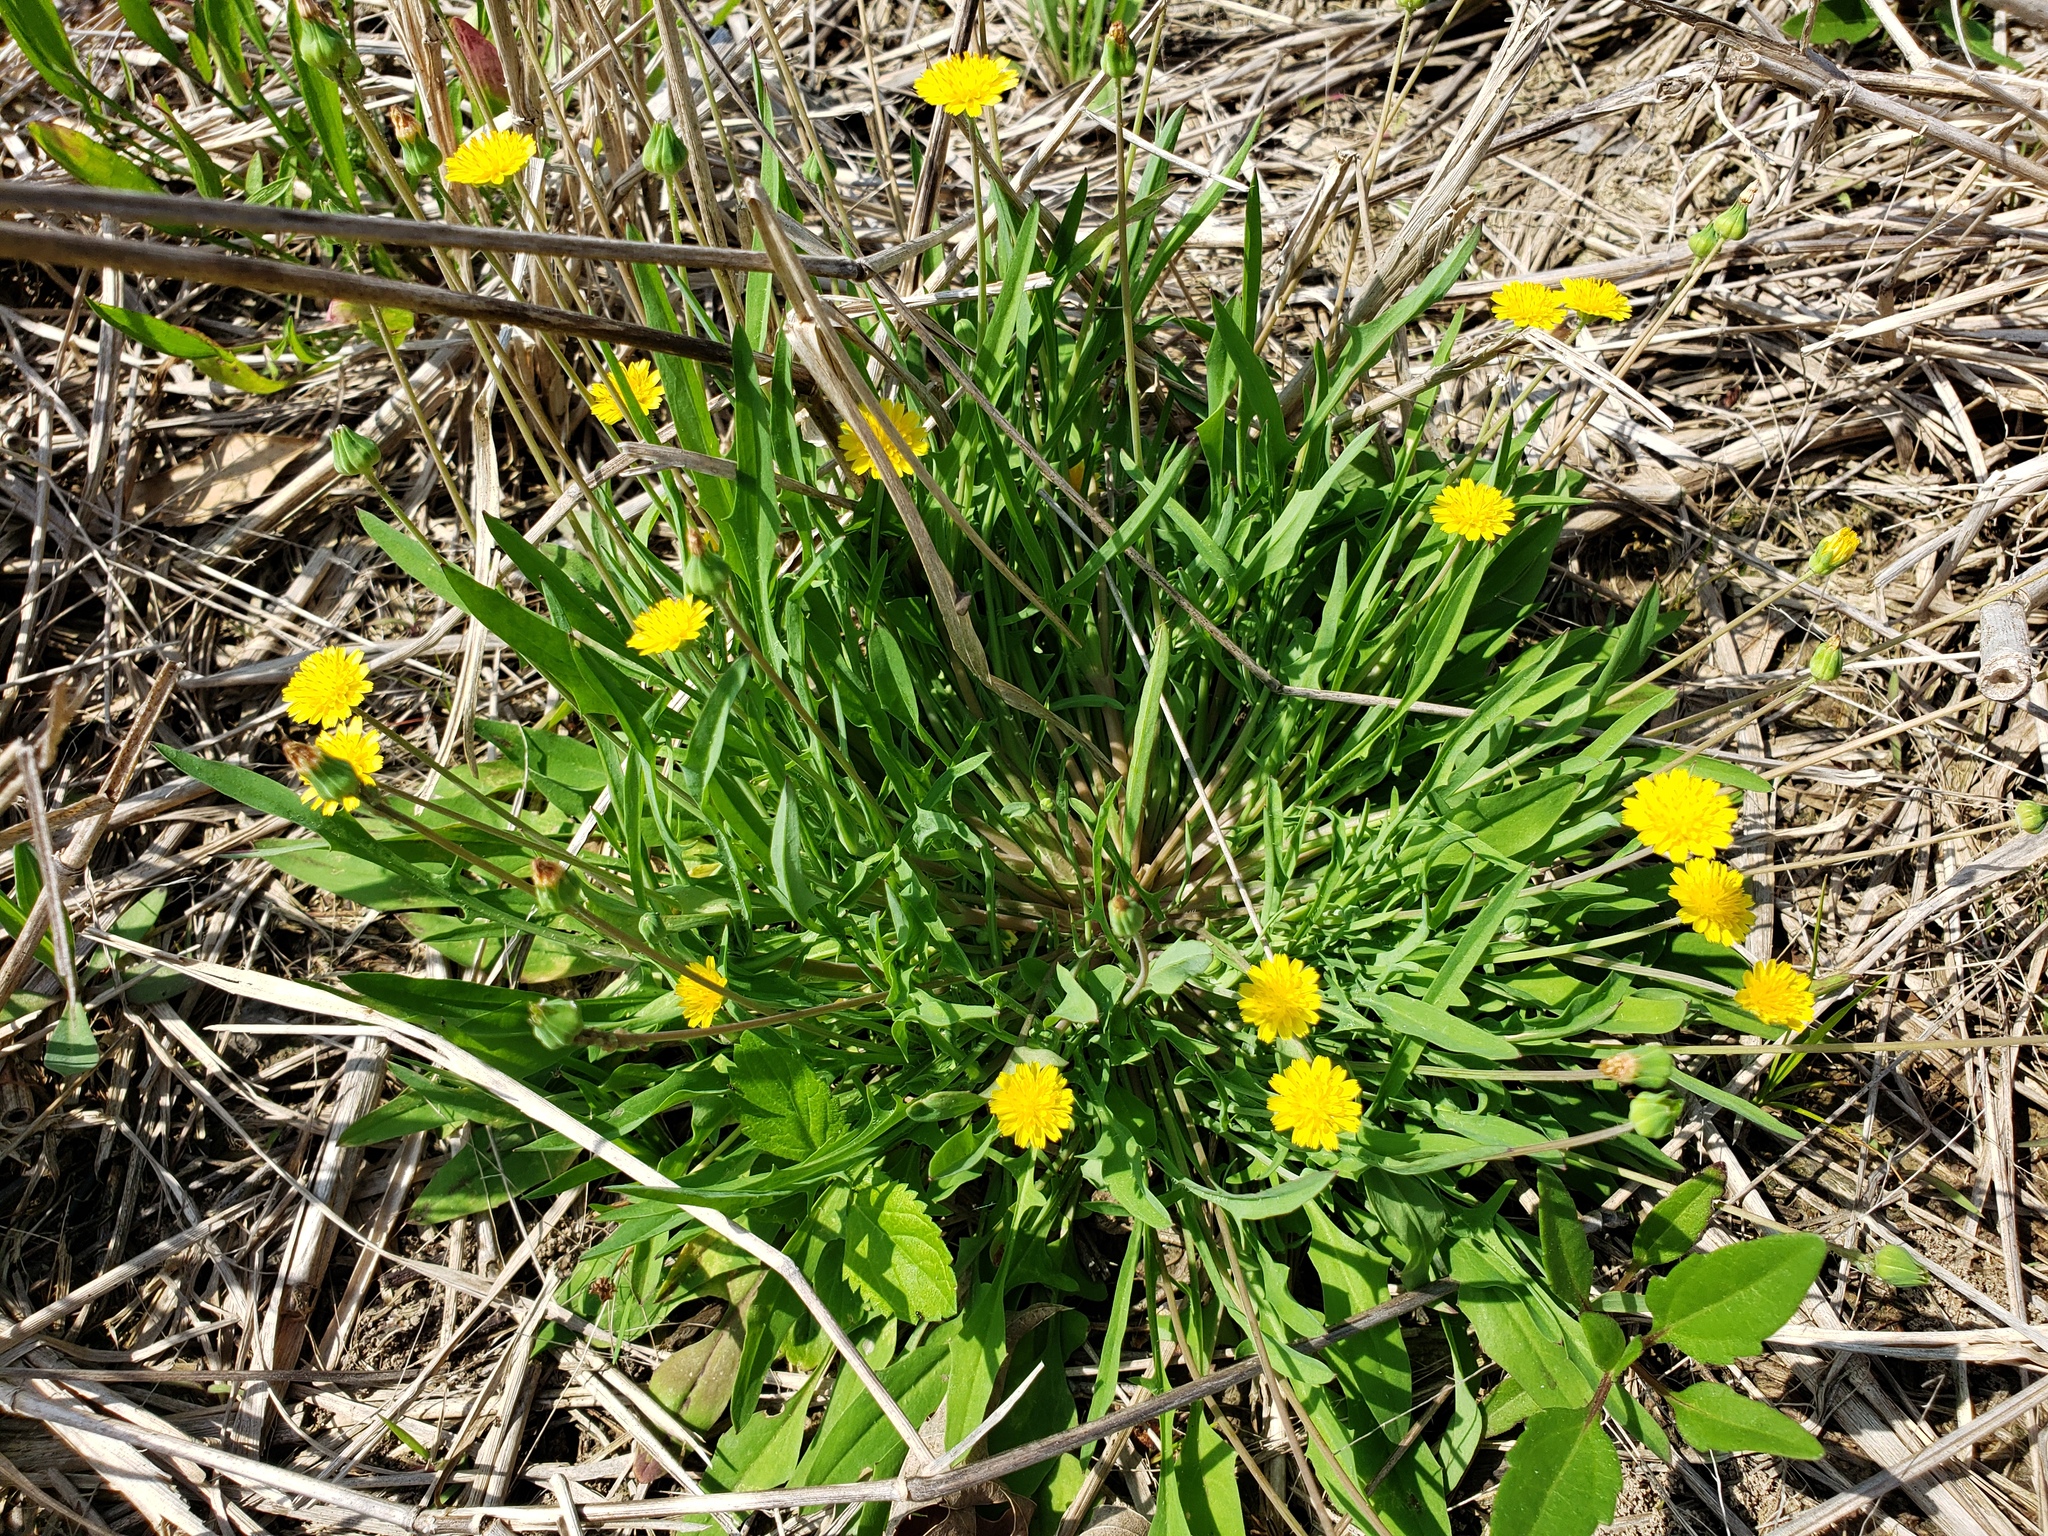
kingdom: Plantae
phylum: Tracheophyta
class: Magnoliopsida
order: Asterales
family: Asteraceae
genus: Krigia
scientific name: Krigia cespitosa
